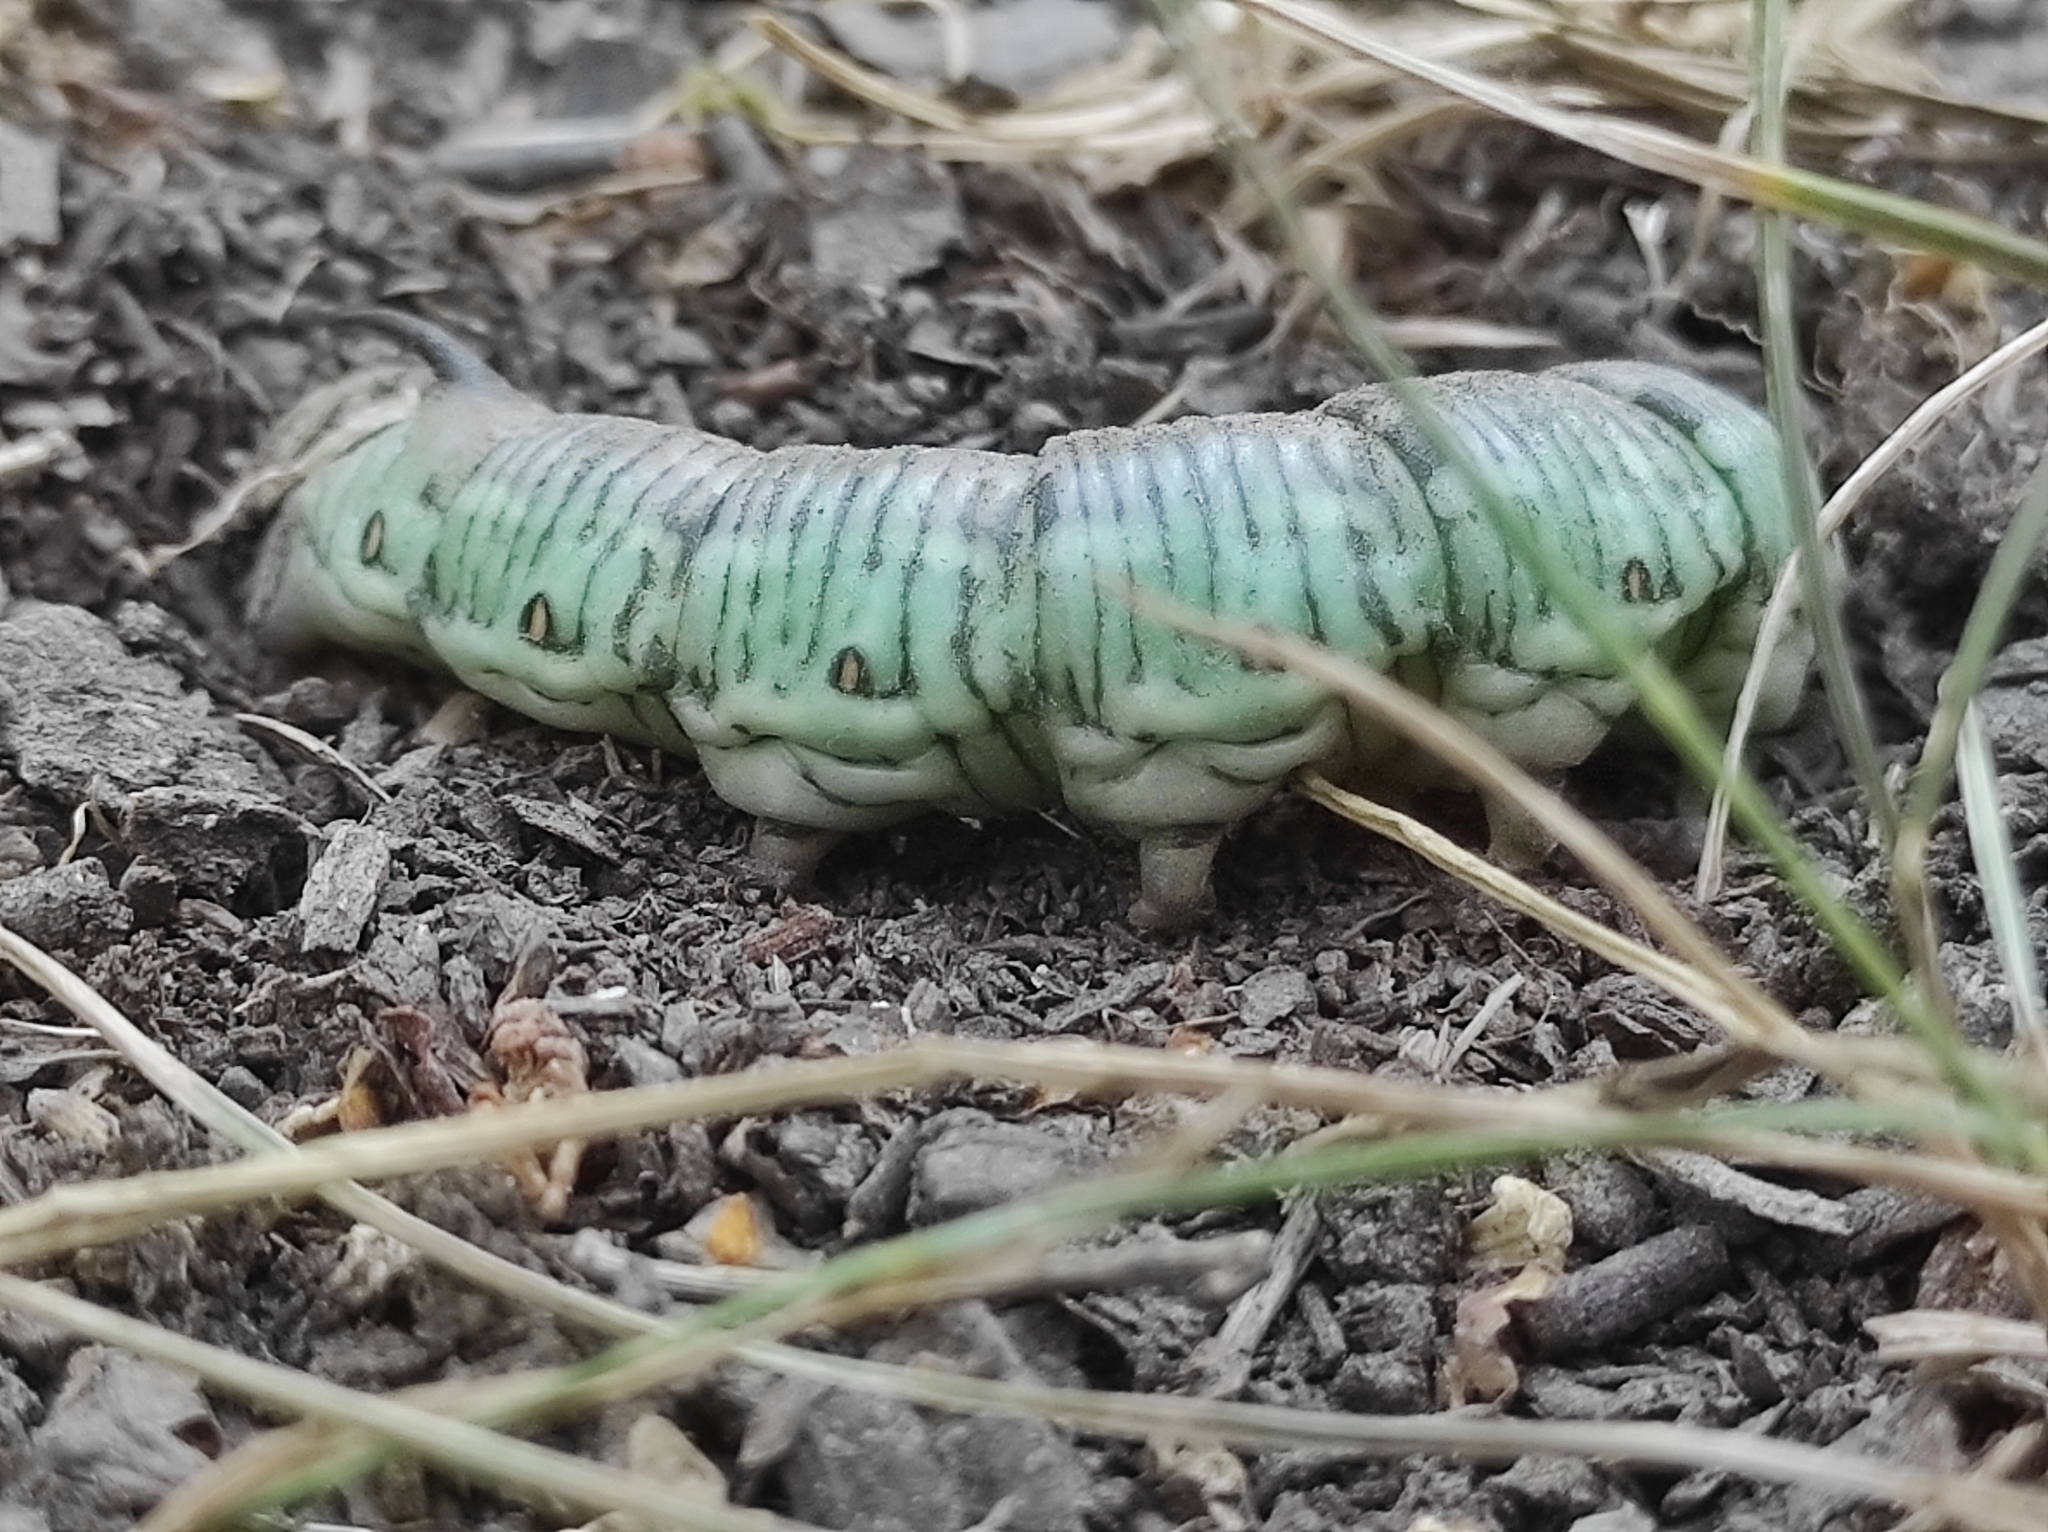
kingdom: Animalia
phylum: Arthropoda
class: Insecta
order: Lepidoptera
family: Sphingidae
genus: Sphinx
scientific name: Sphinx pinastri
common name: Pine hawk-moth
